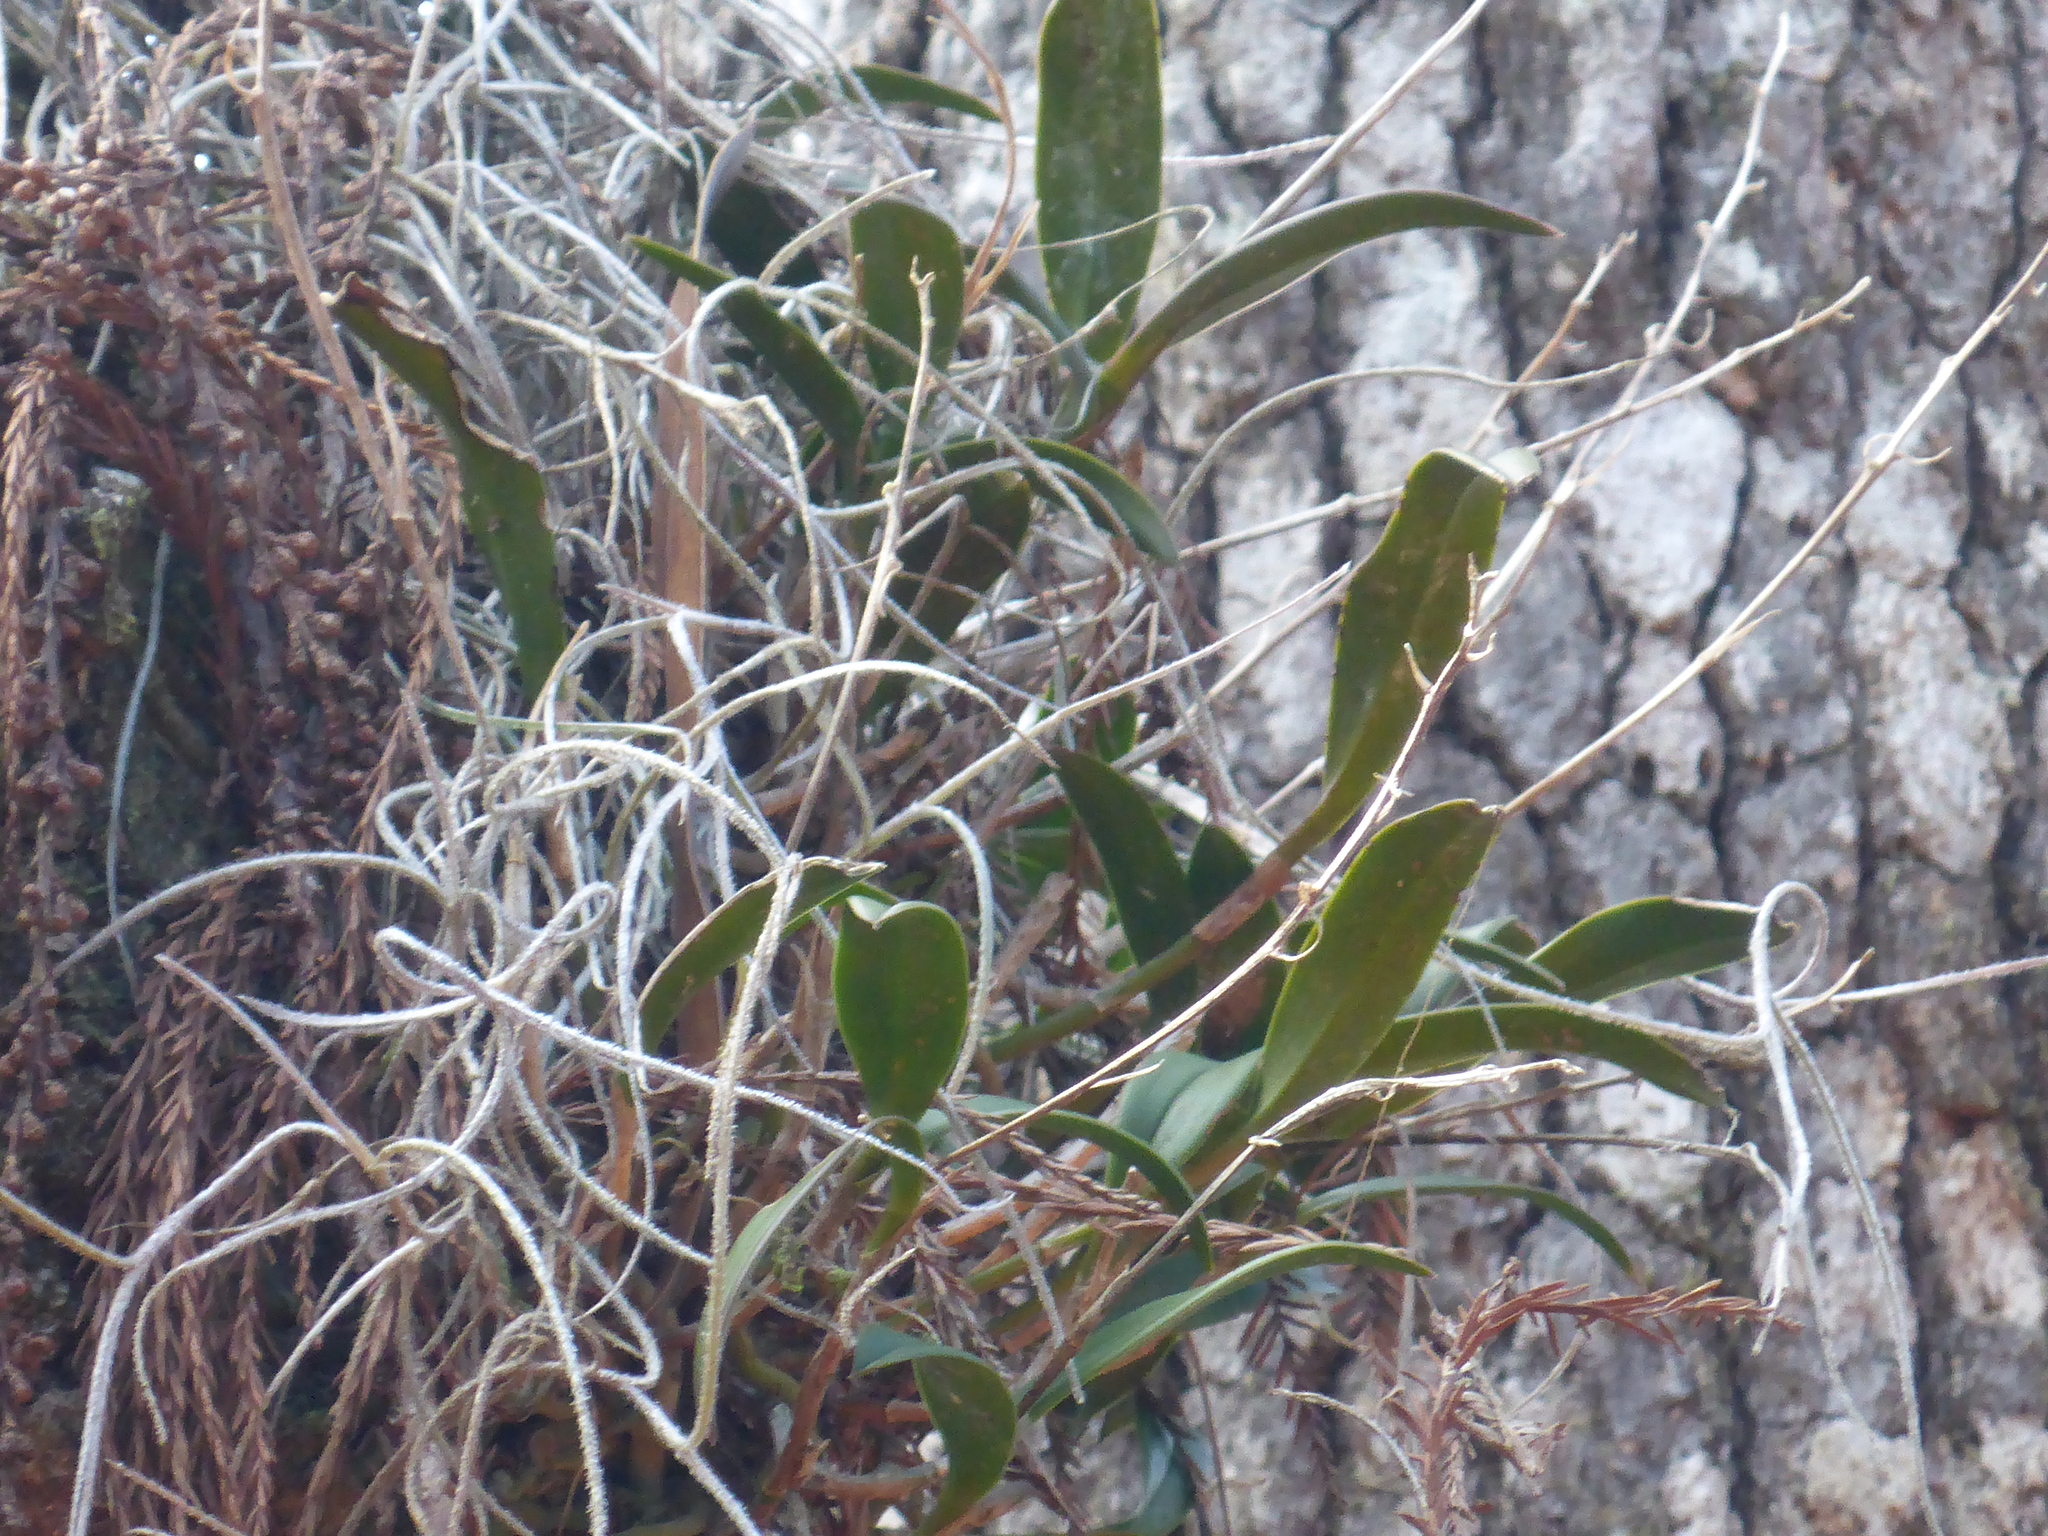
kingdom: Plantae
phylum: Tracheophyta
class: Liliopsida
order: Asparagales
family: Orchidaceae
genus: Epidendrum
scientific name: Epidendrum conopseum
